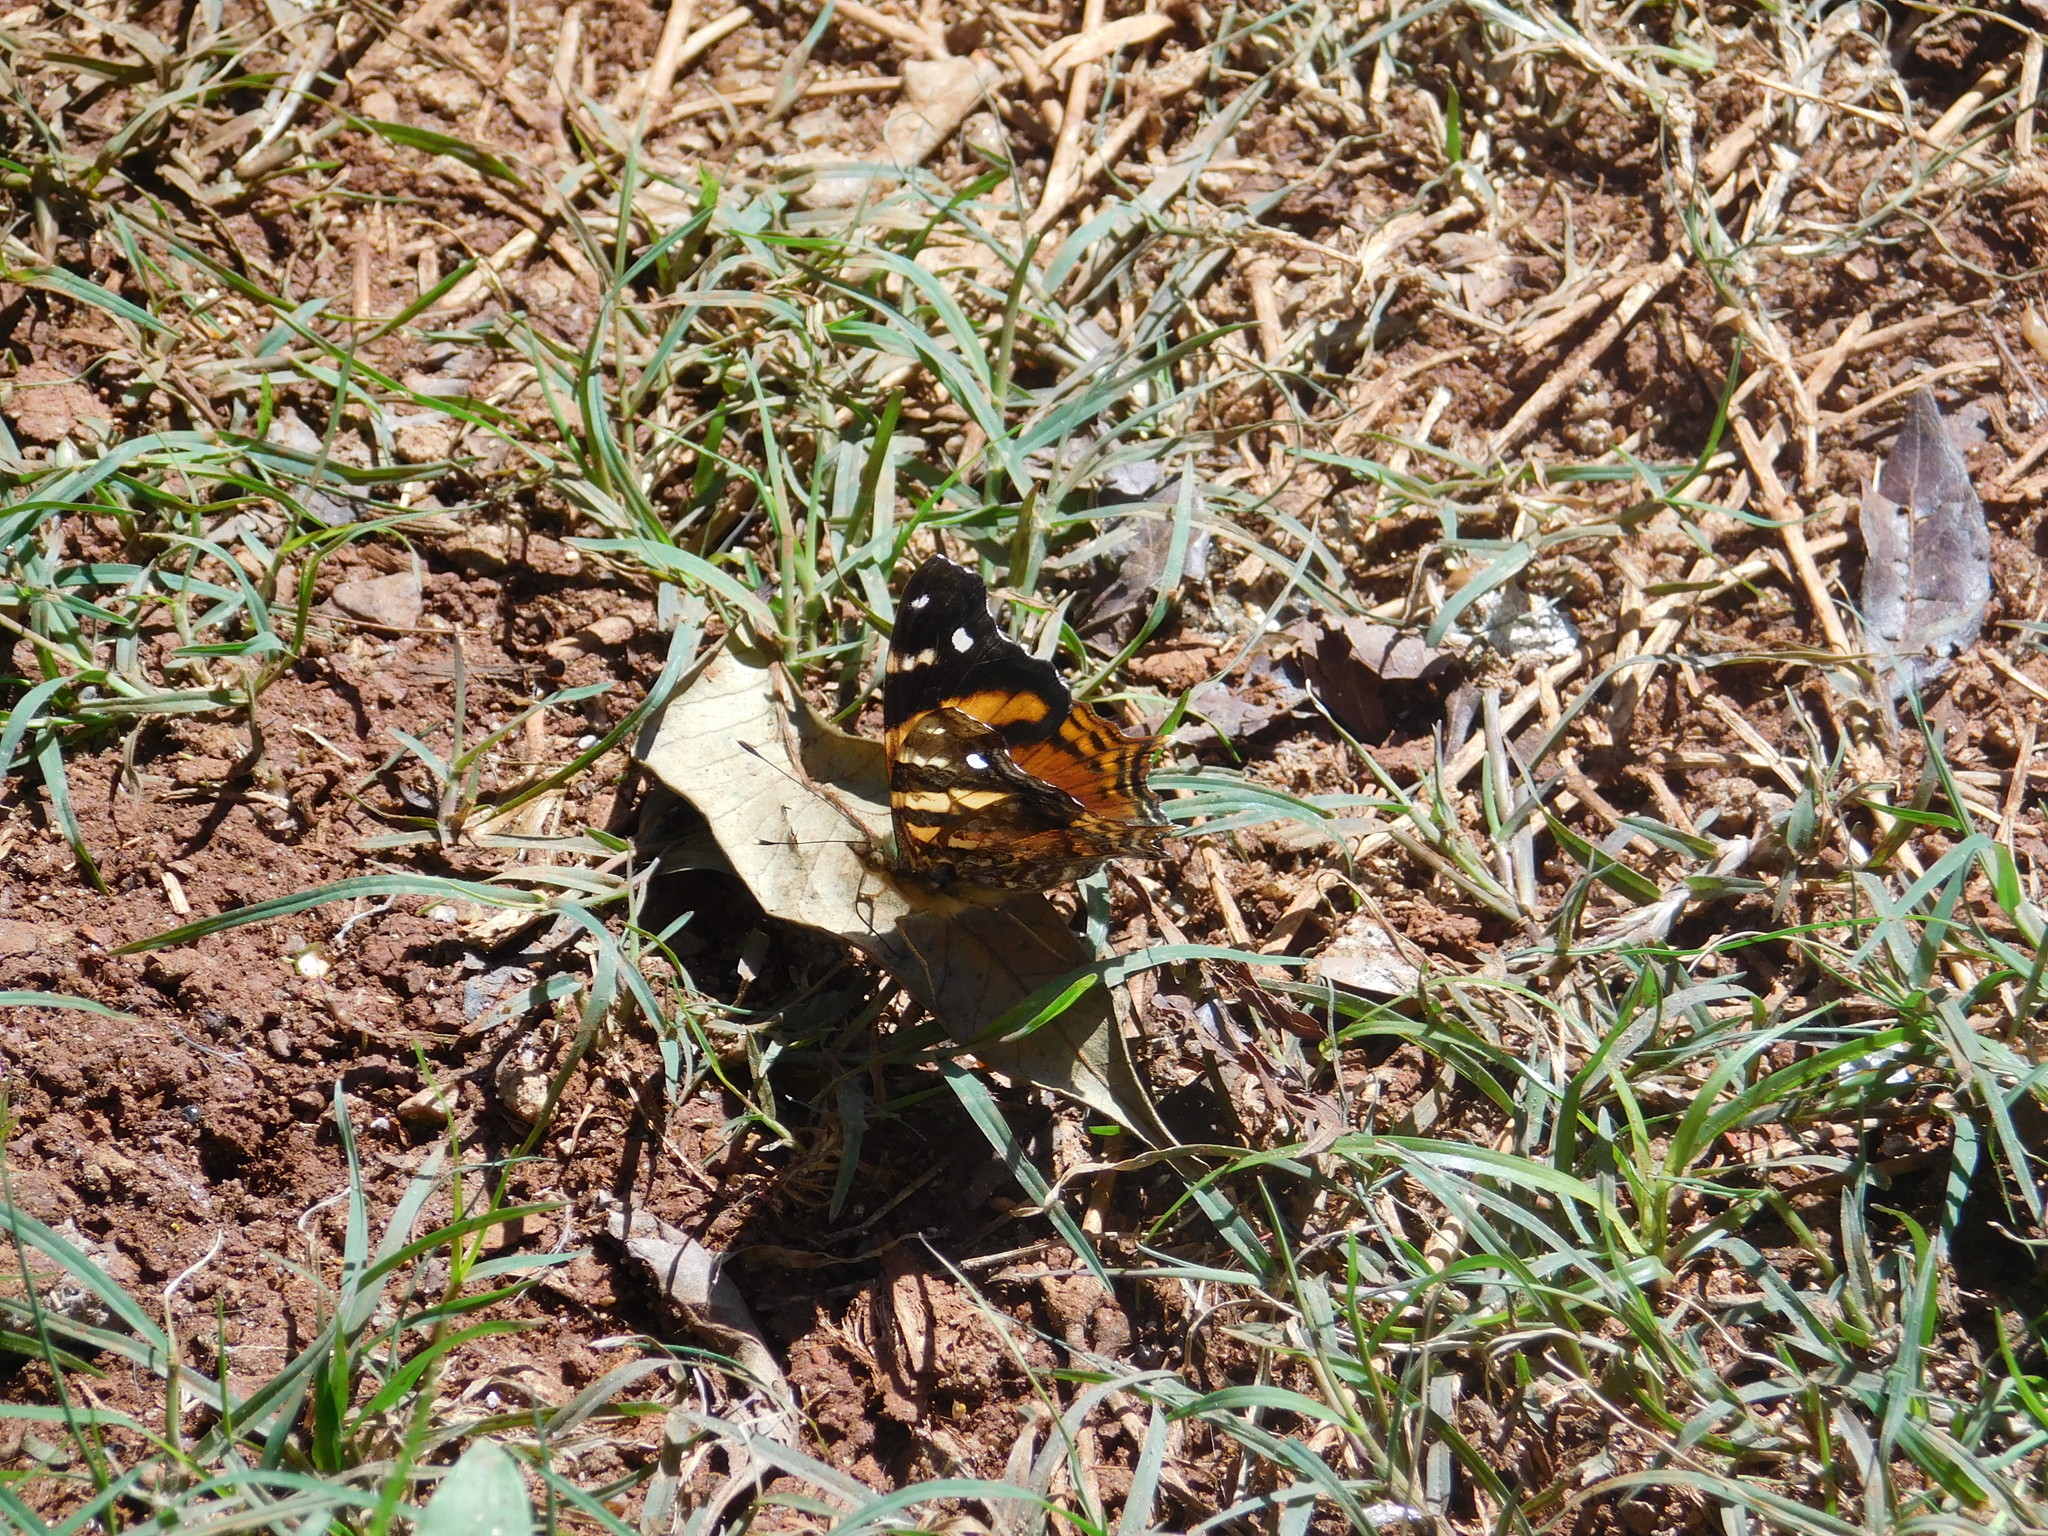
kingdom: Animalia
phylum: Arthropoda
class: Insecta
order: Lepidoptera
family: Nymphalidae
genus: Hypanartia
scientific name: Hypanartia bella
